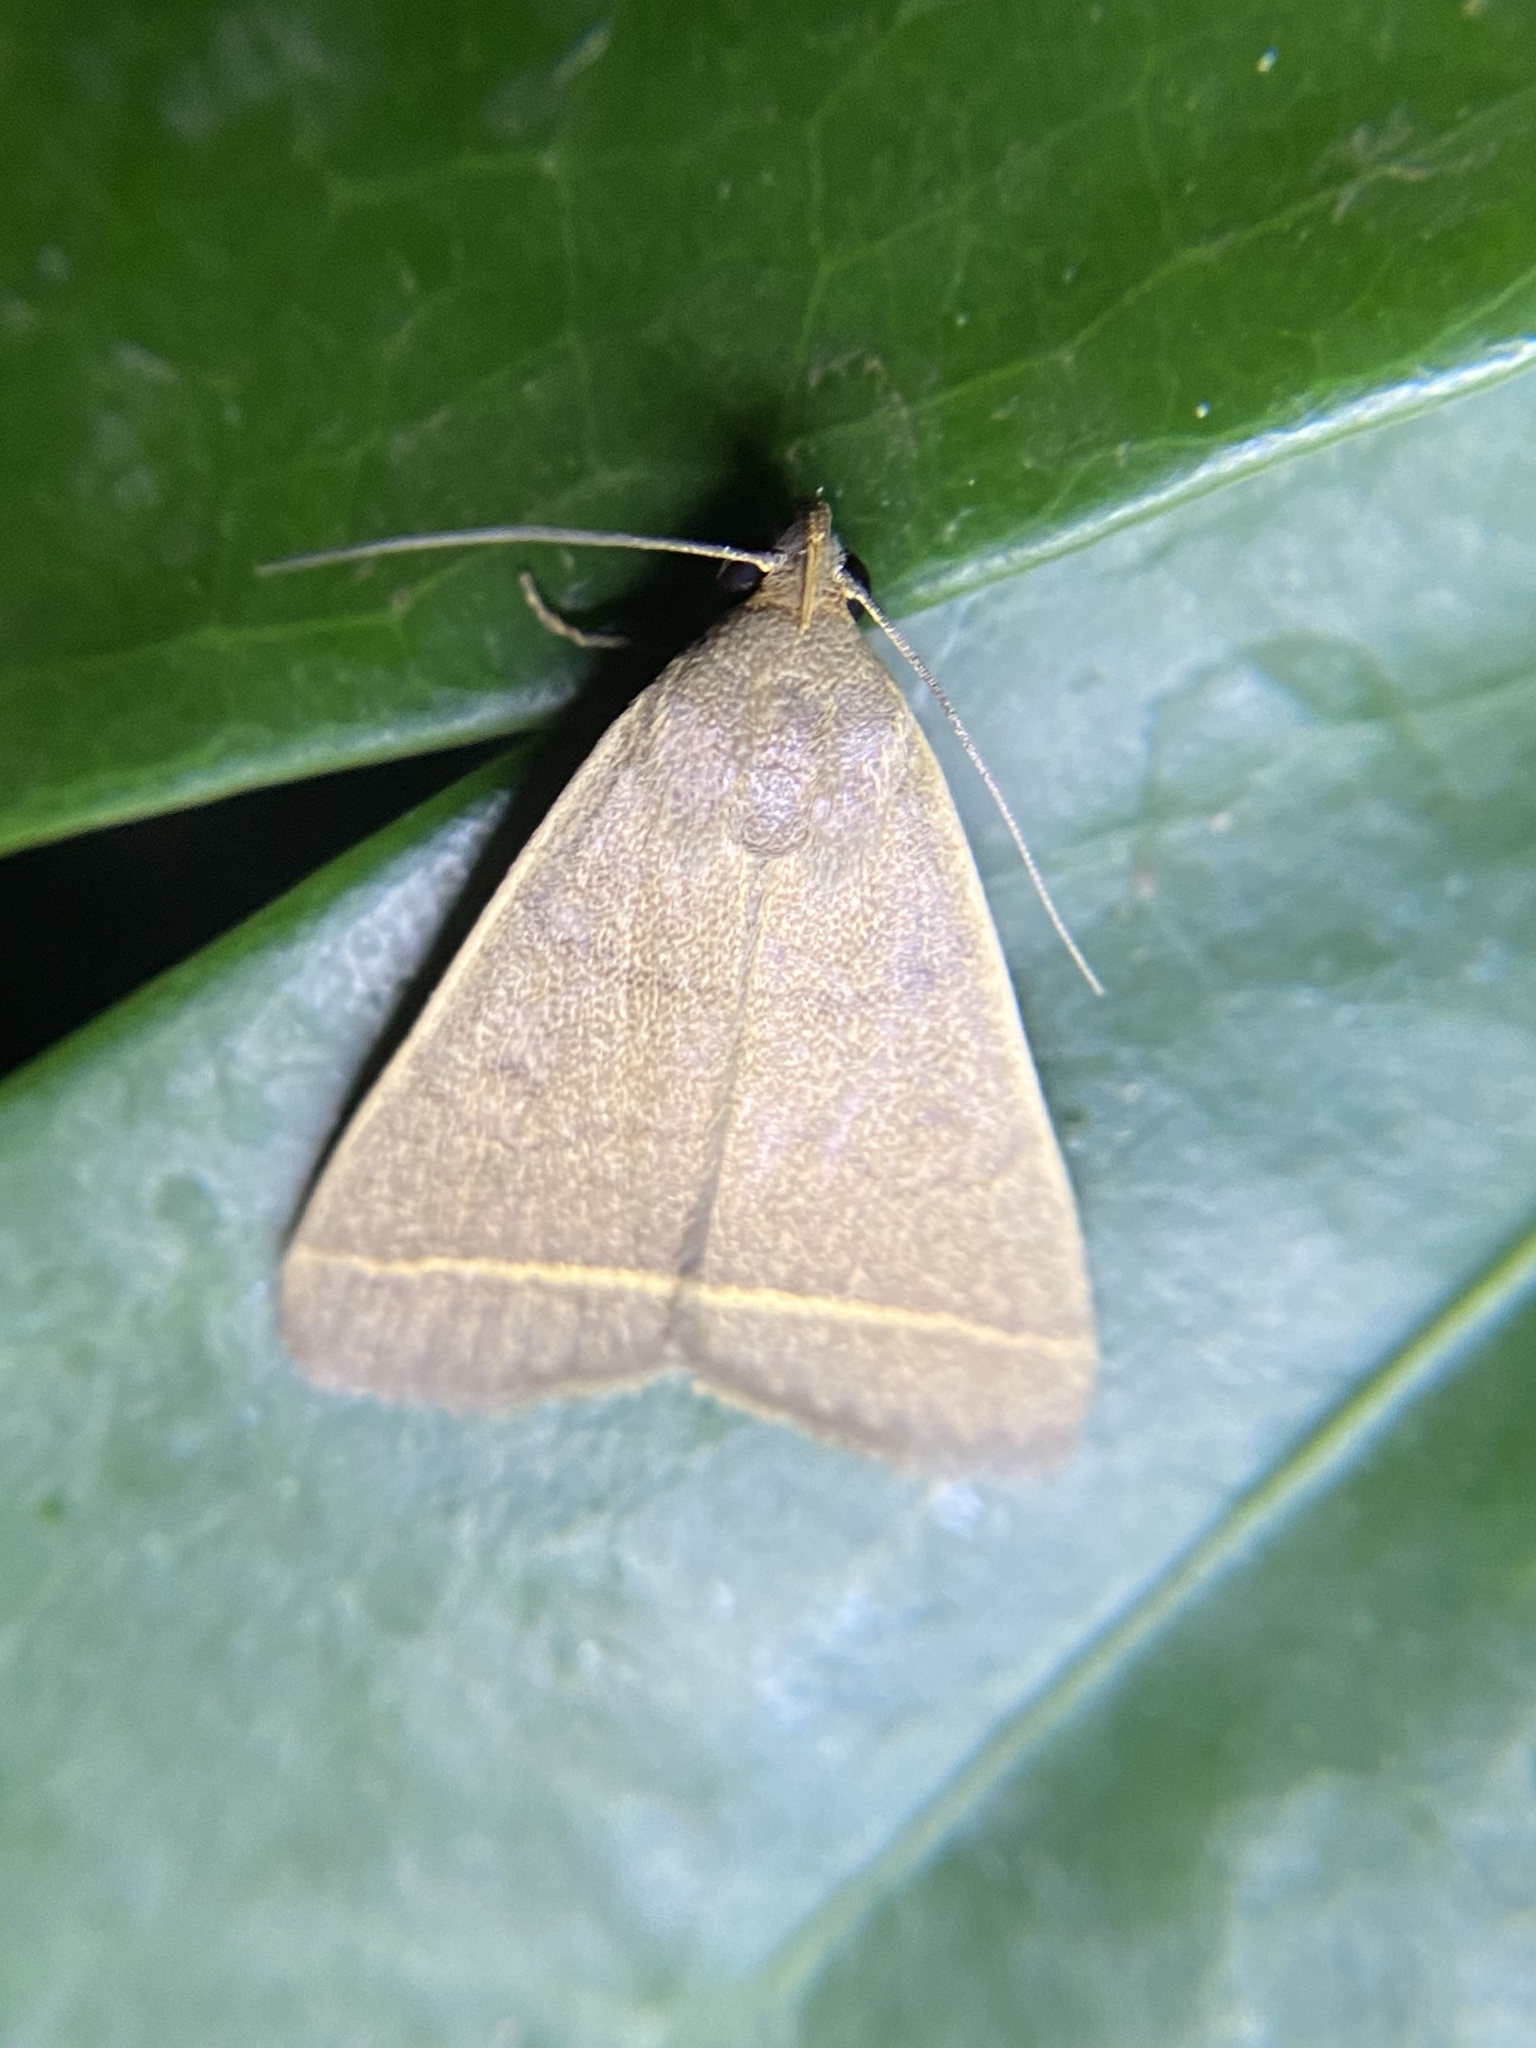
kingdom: Animalia
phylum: Arthropoda
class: Insecta
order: Lepidoptera
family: Erebidae
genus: Simplicia
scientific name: Simplicia cornicalis
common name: Tiki hut litter moth
